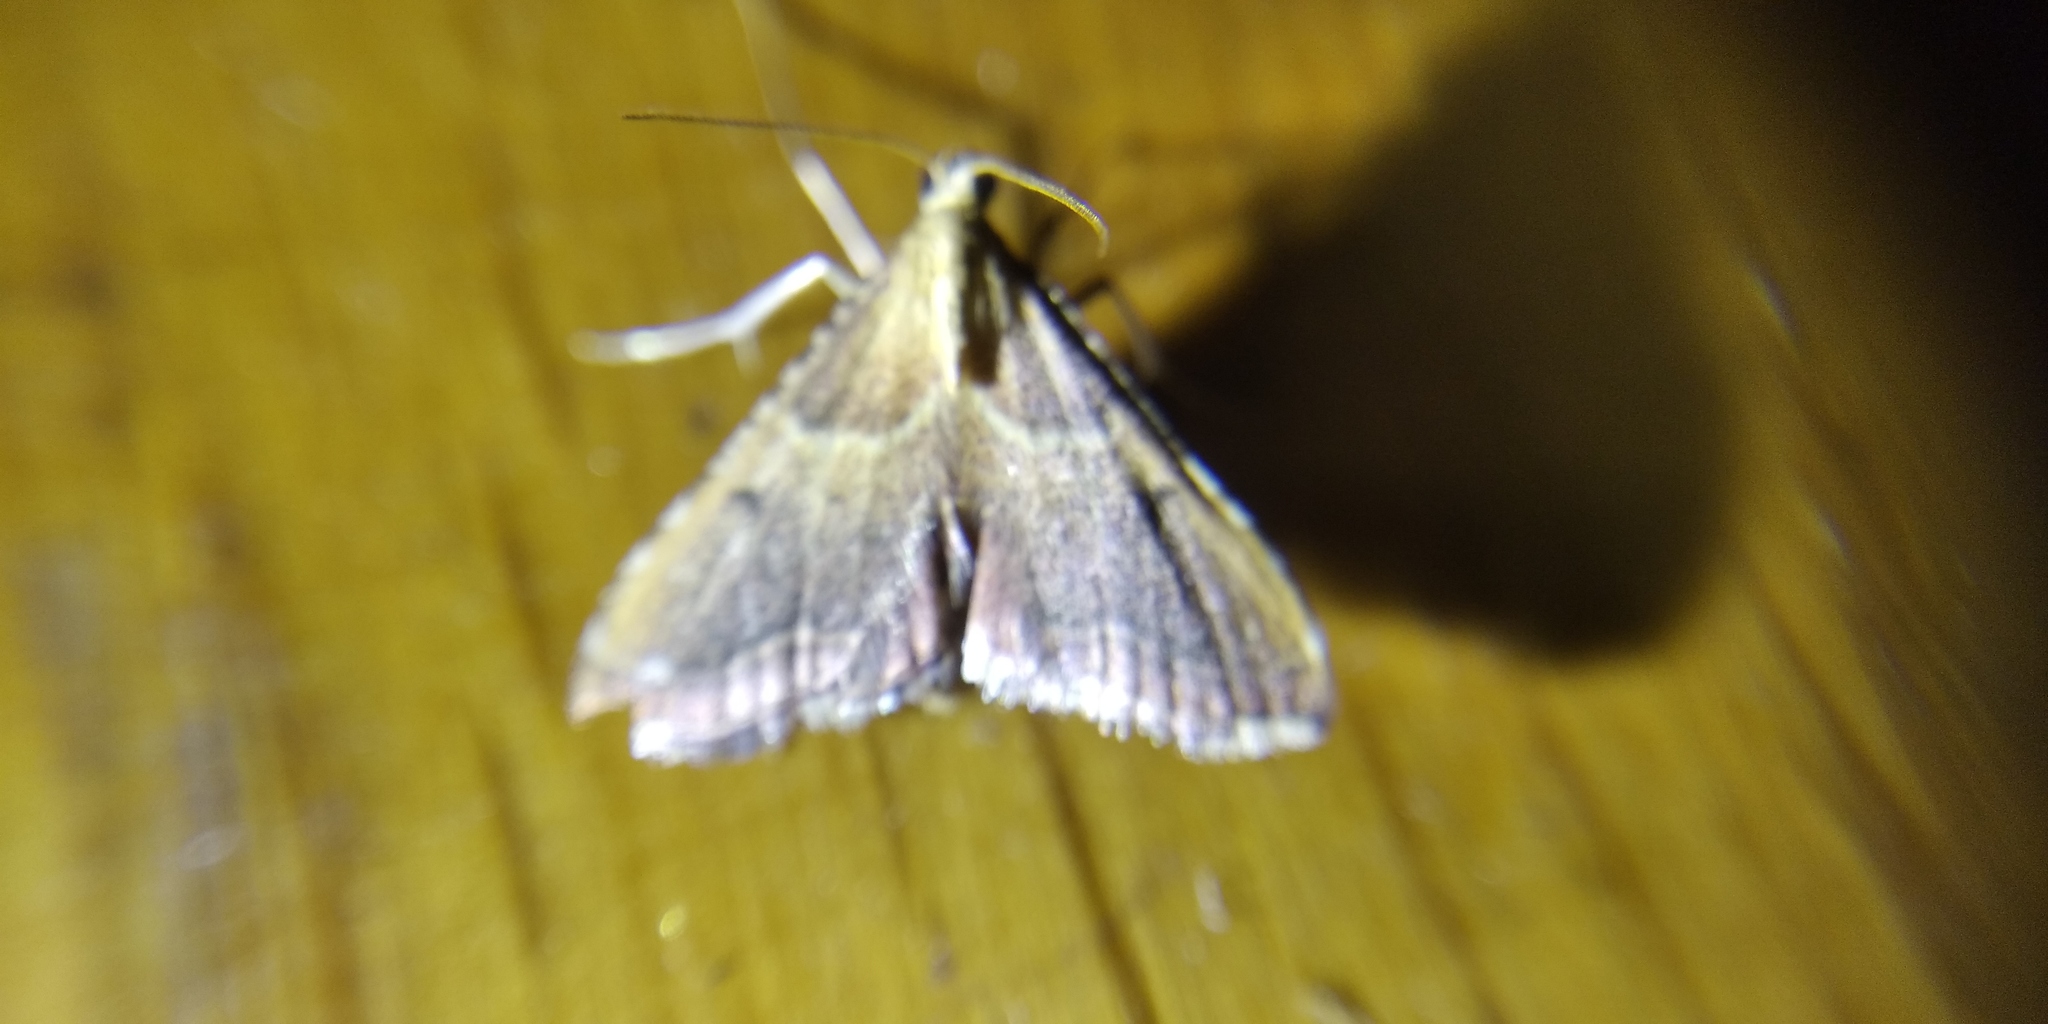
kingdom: Animalia
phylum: Arthropoda
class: Insecta
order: Lepidoptera
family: Pyralidae
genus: Endotricha
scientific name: Endotricha flammealis
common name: Rosy tabby
